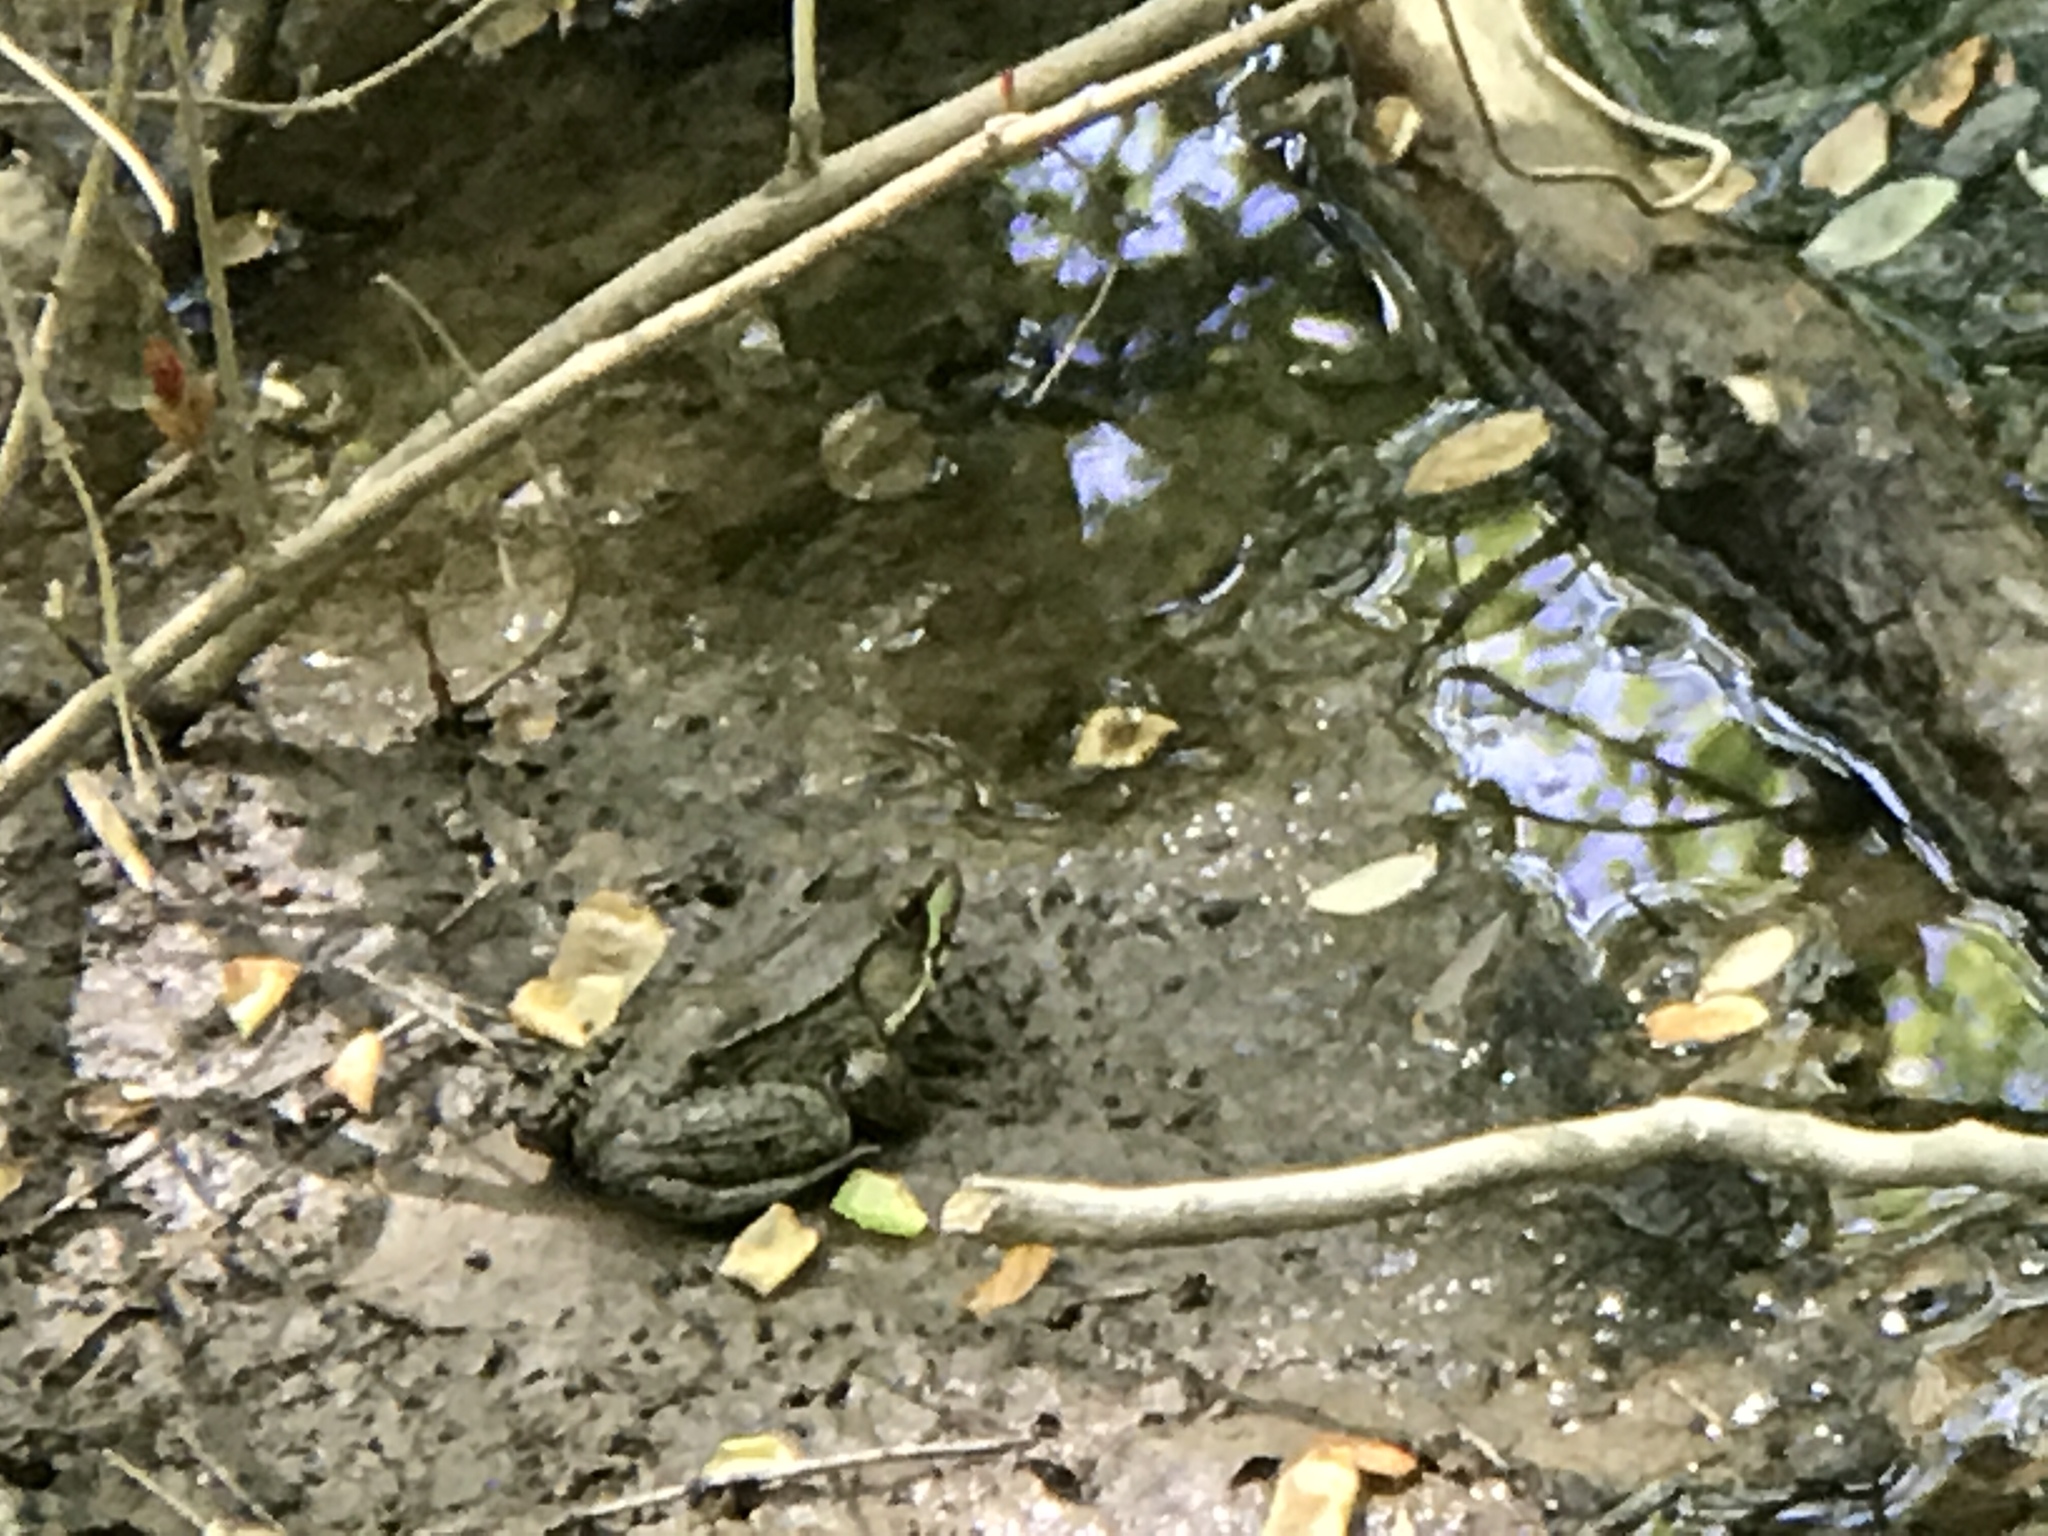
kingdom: Animalia
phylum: Chordata
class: Amphibia
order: Anura
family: Ranidae
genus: Lithobates
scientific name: Lithobates clamitans
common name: Green frog
